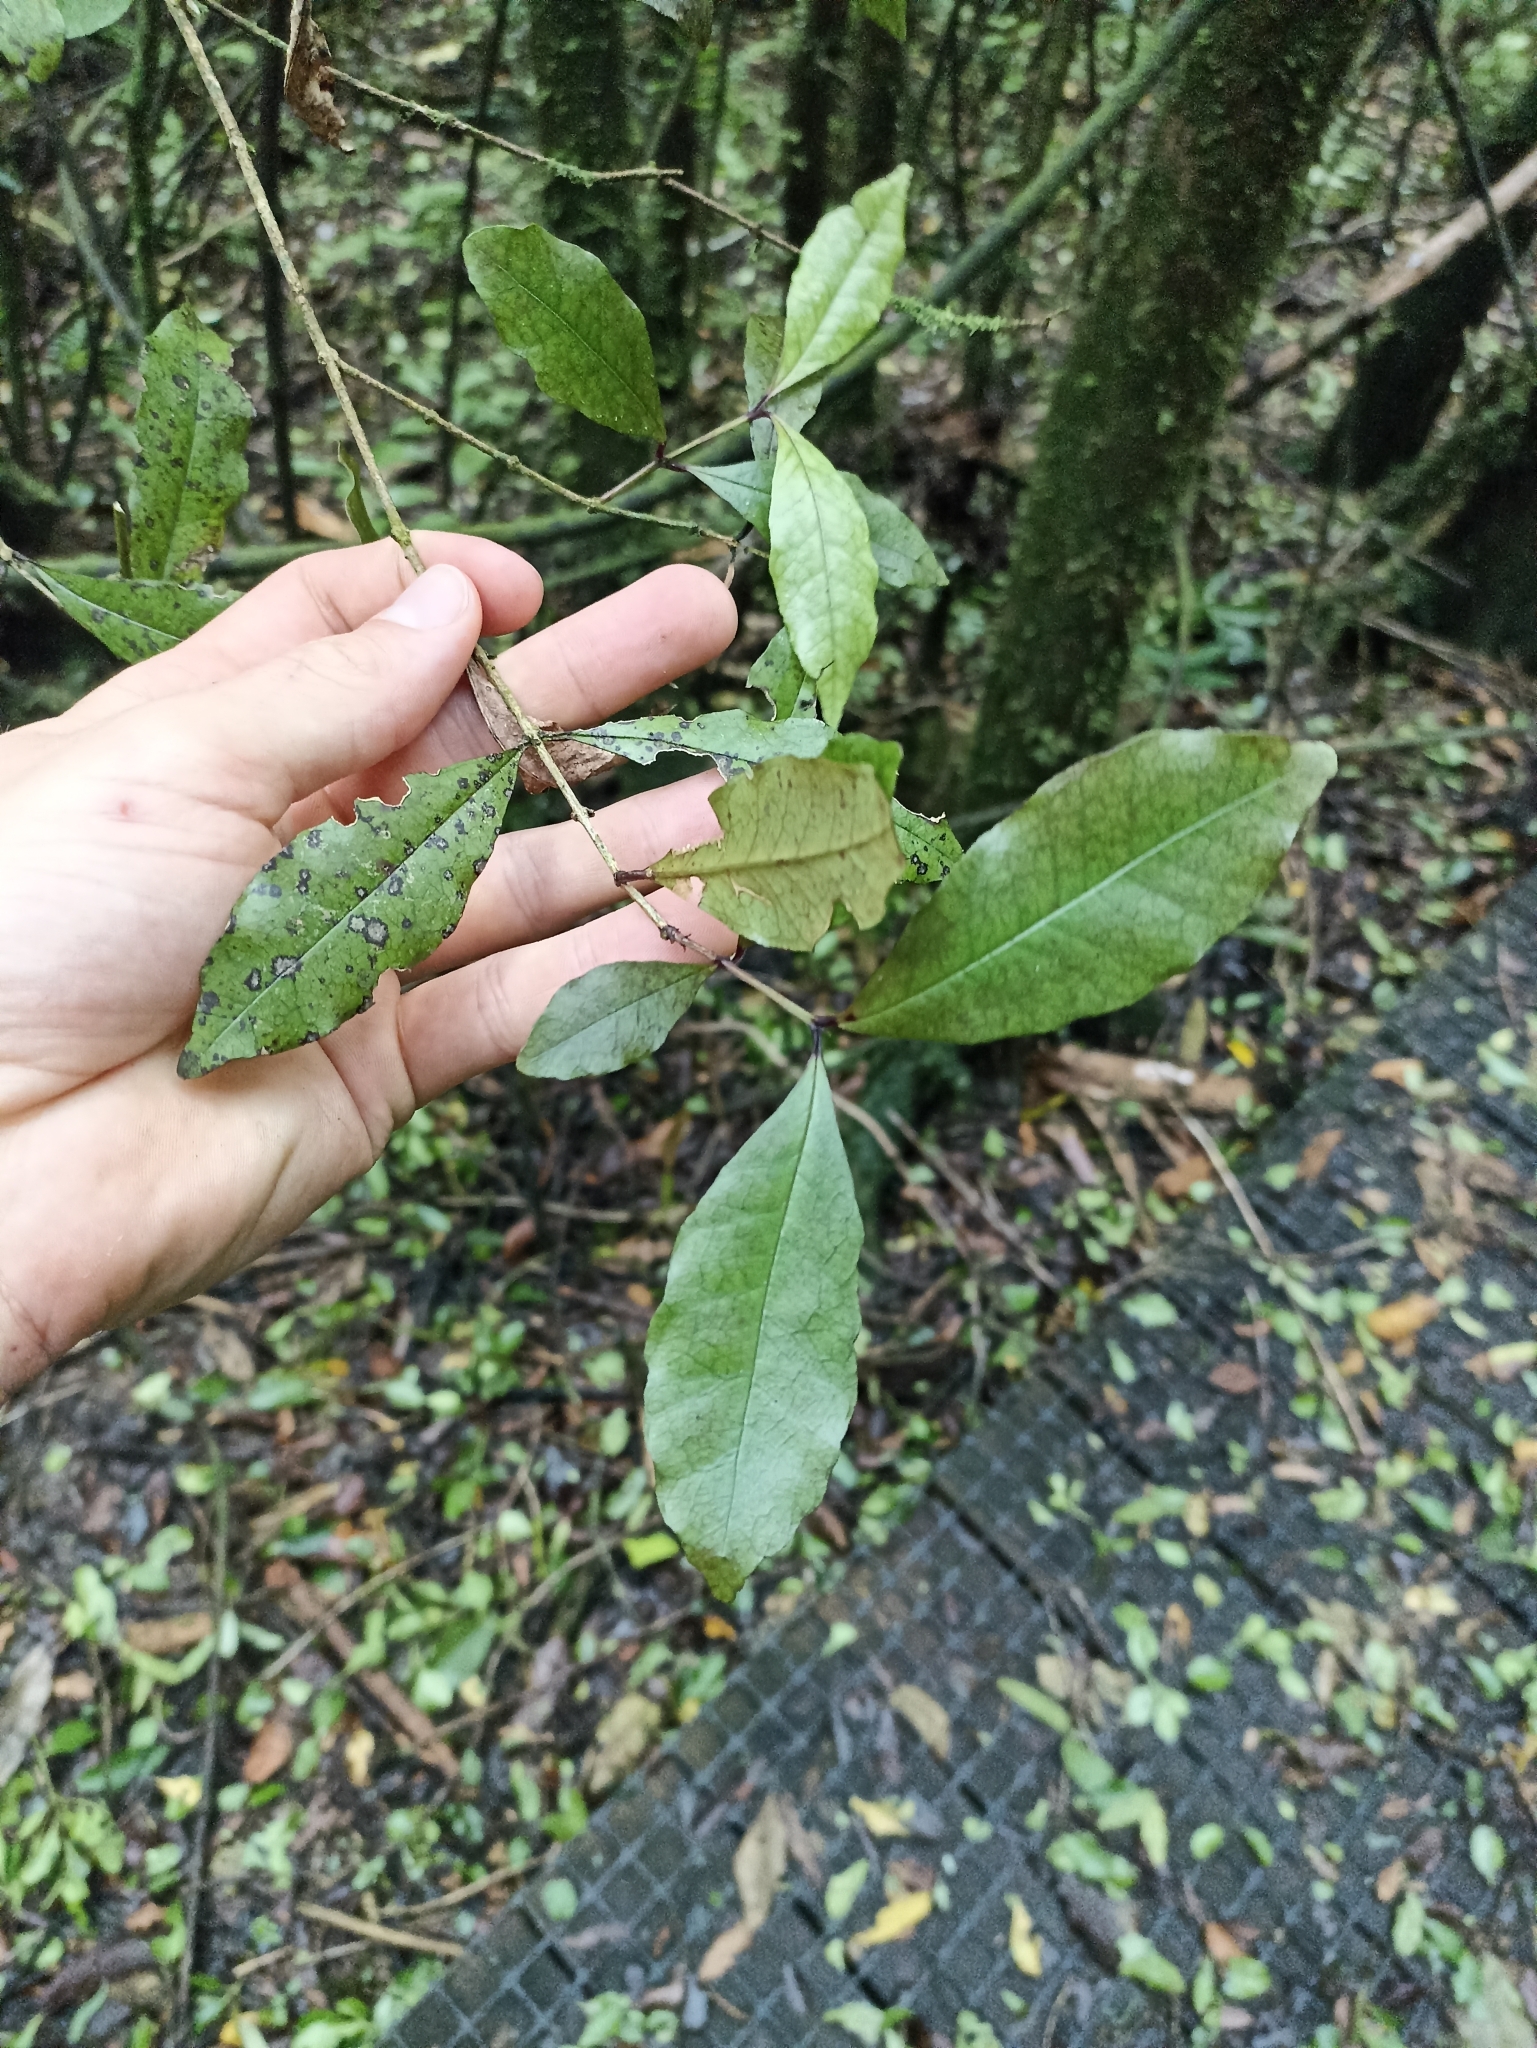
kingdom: Plantae
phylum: Tracheophyta
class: Magnoliopsida
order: Myrtales
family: Myrtaceae
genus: Syzygium
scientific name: Syzygium maire
